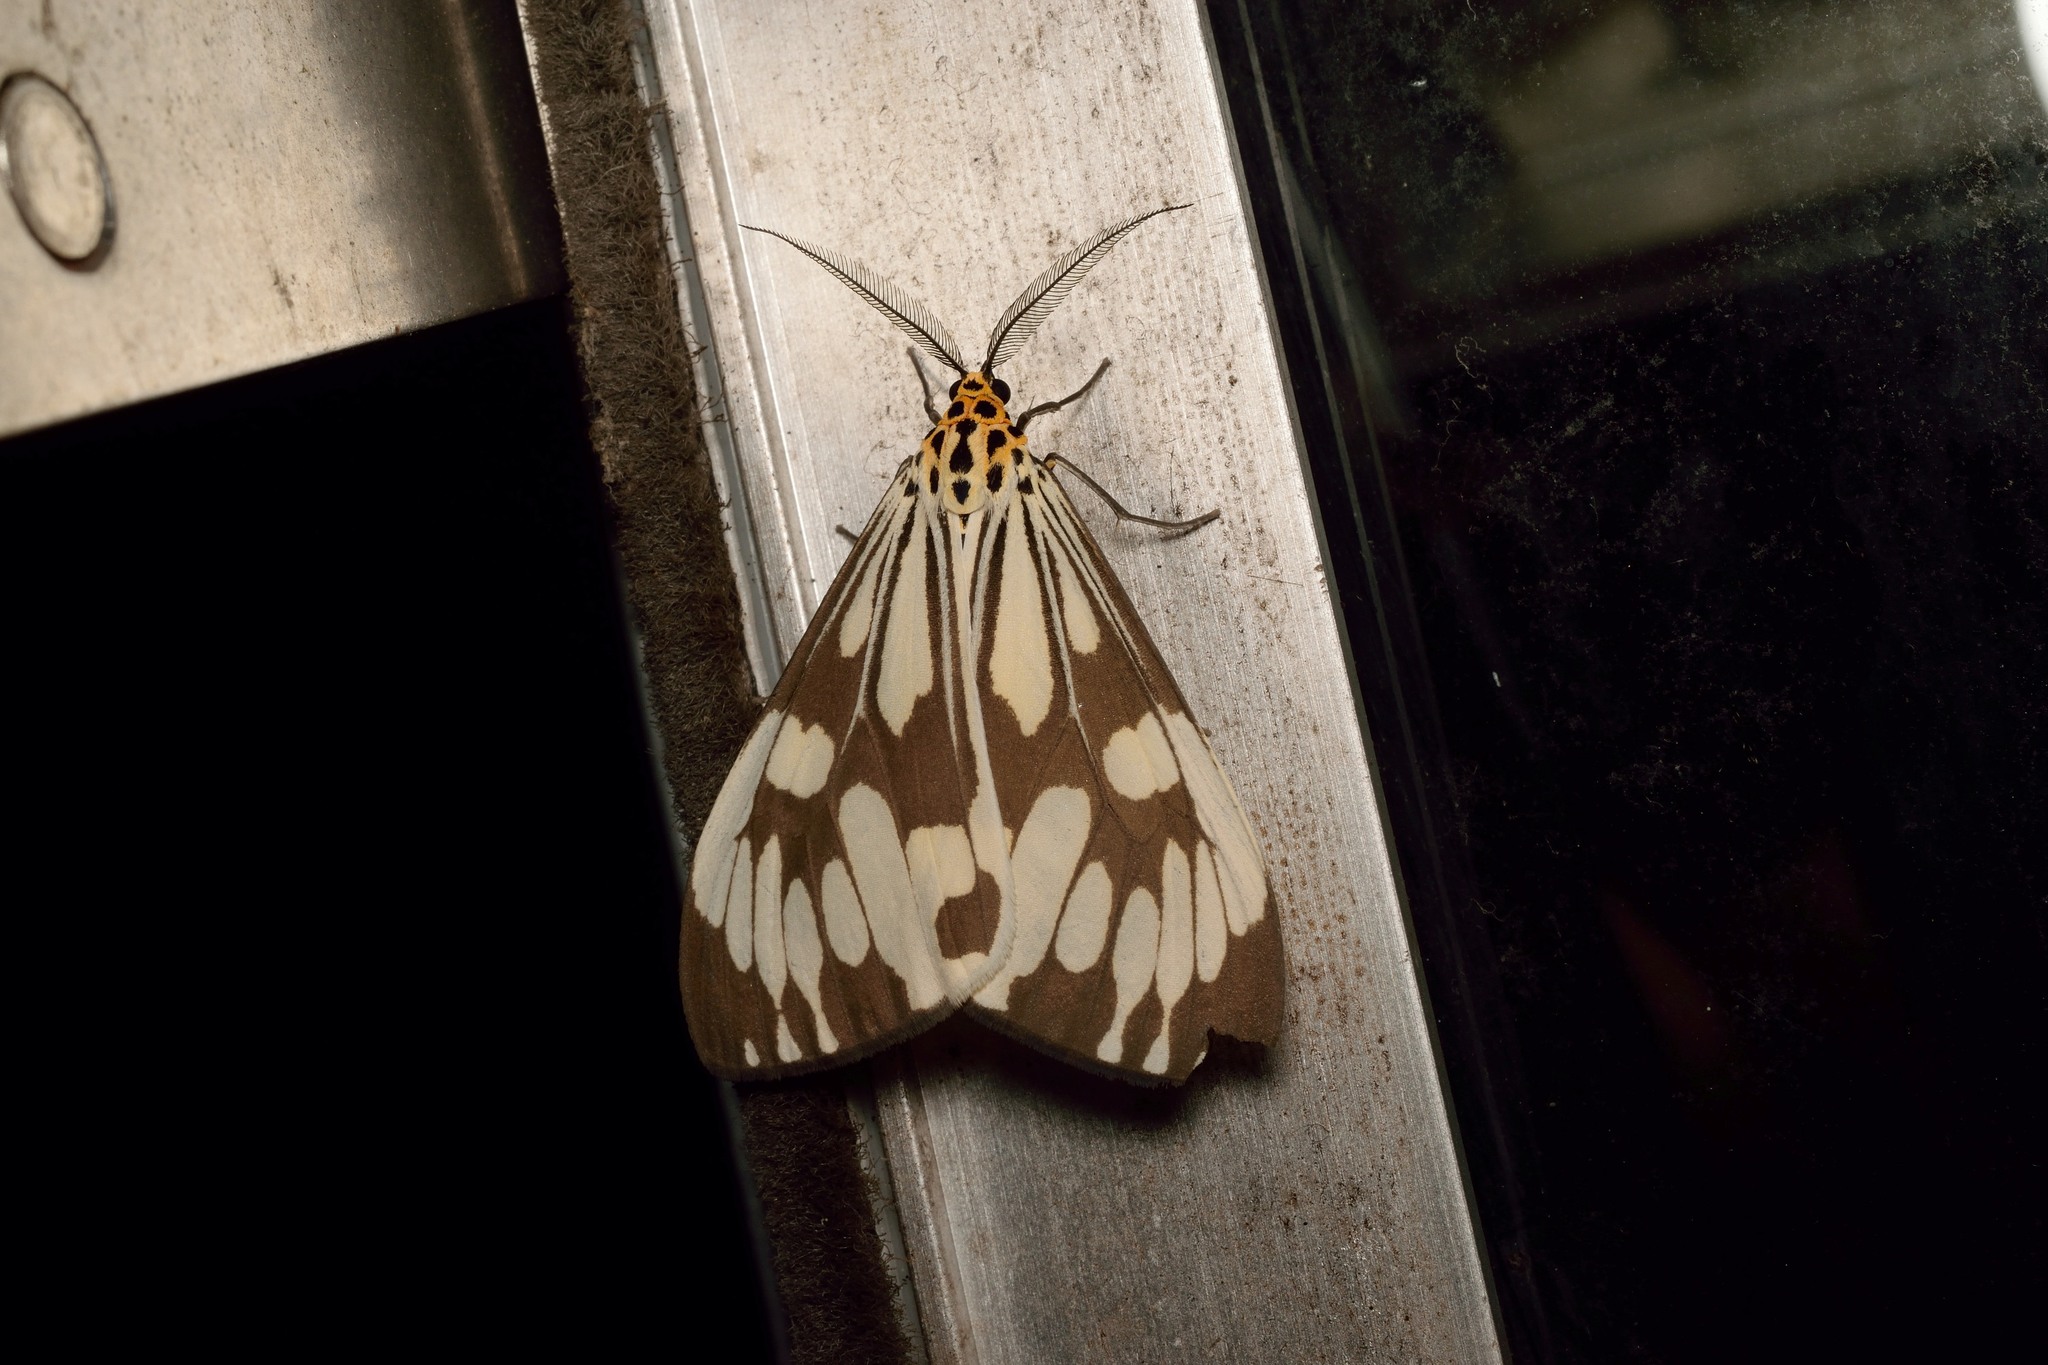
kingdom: Animalia
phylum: Arthropoda
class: Insecta
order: Lepidoptera
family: Erebidae
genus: Nyctemera
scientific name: Nyctemera adversata
